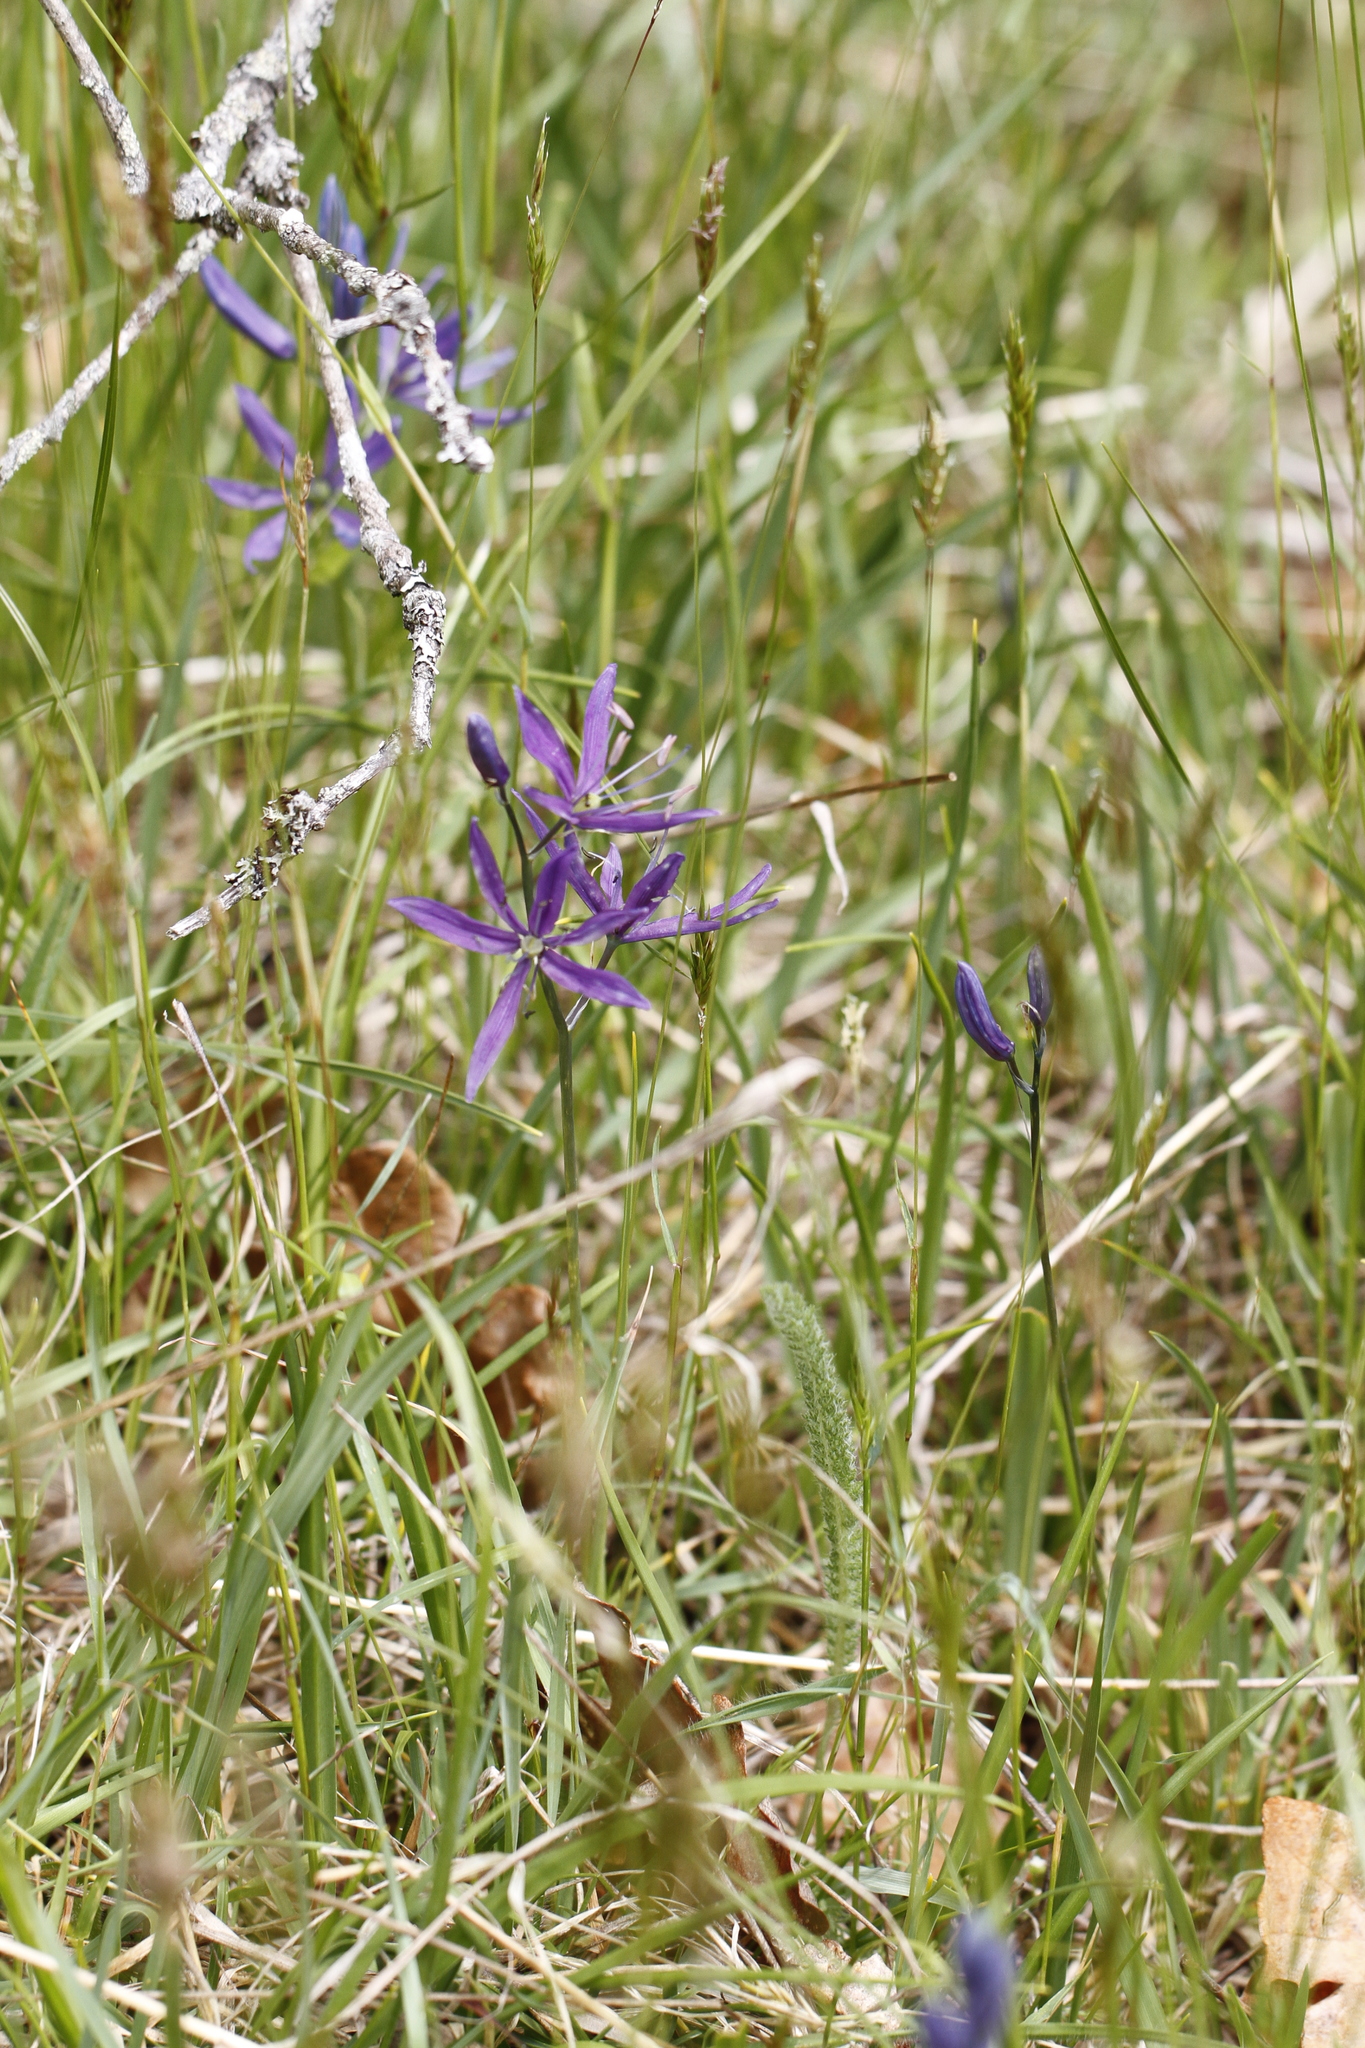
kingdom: Plantae
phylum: Tracheophyta
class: Liliopsida
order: Asparagales
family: Asparagaceae
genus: Camassia
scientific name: Camassia quamash
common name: Common camas
